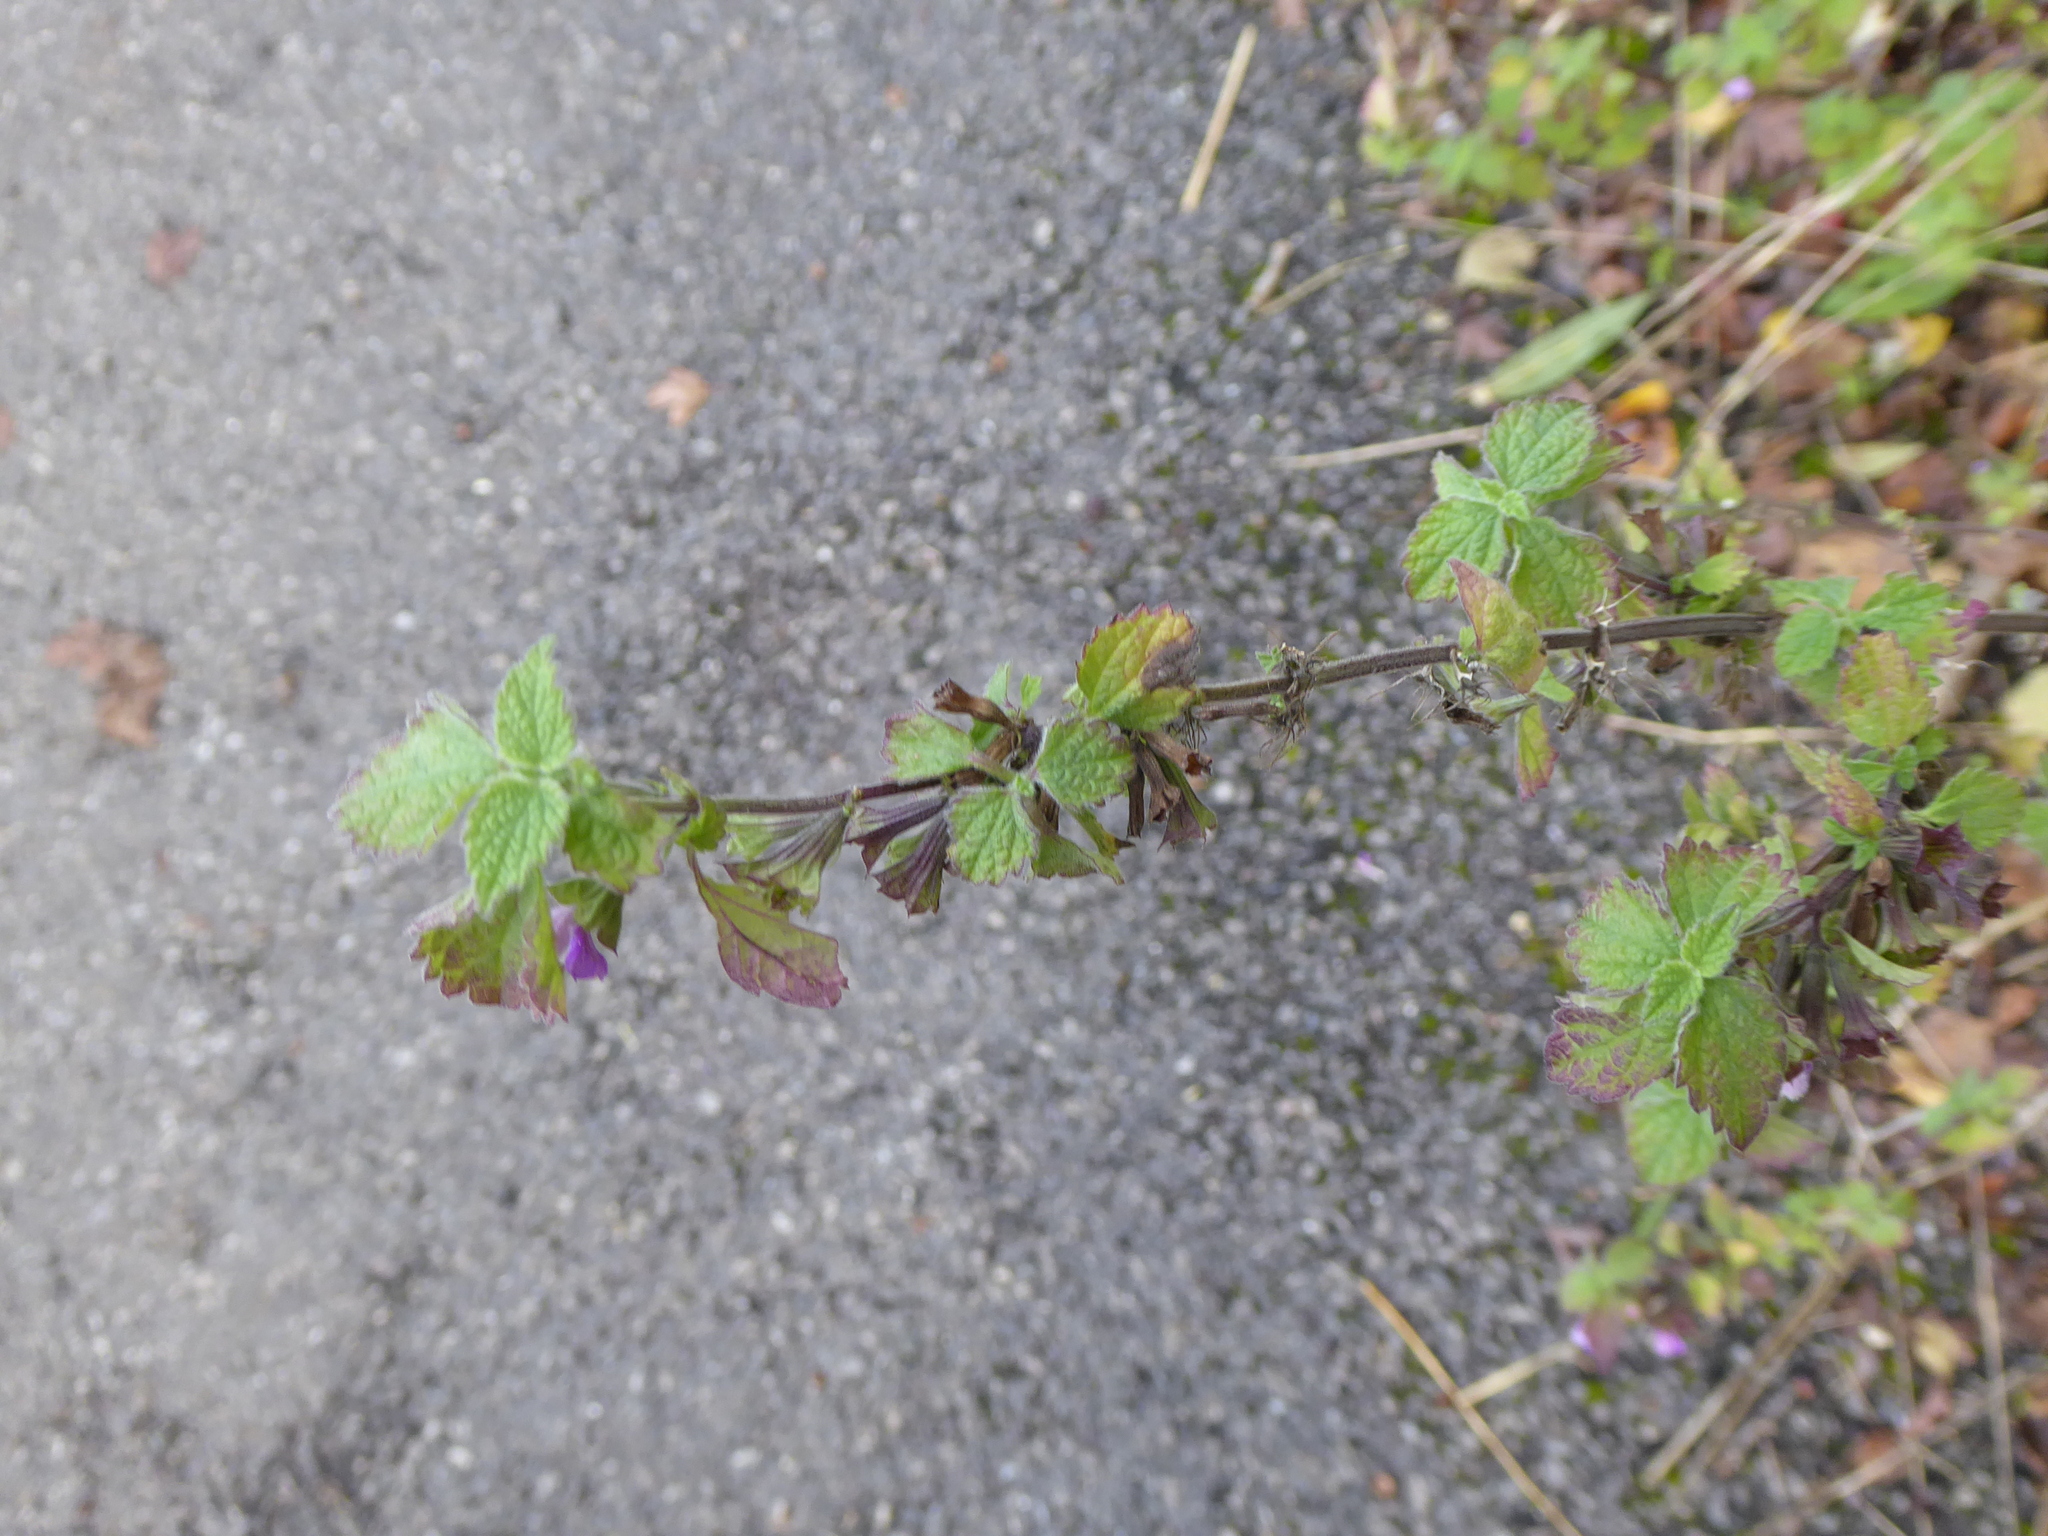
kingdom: Plantae
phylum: Tracheophyta
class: Magnoliopsida
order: Lamiales
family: Lamiaceae
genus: Ballota
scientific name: Ballota nigra
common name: Black horehound
